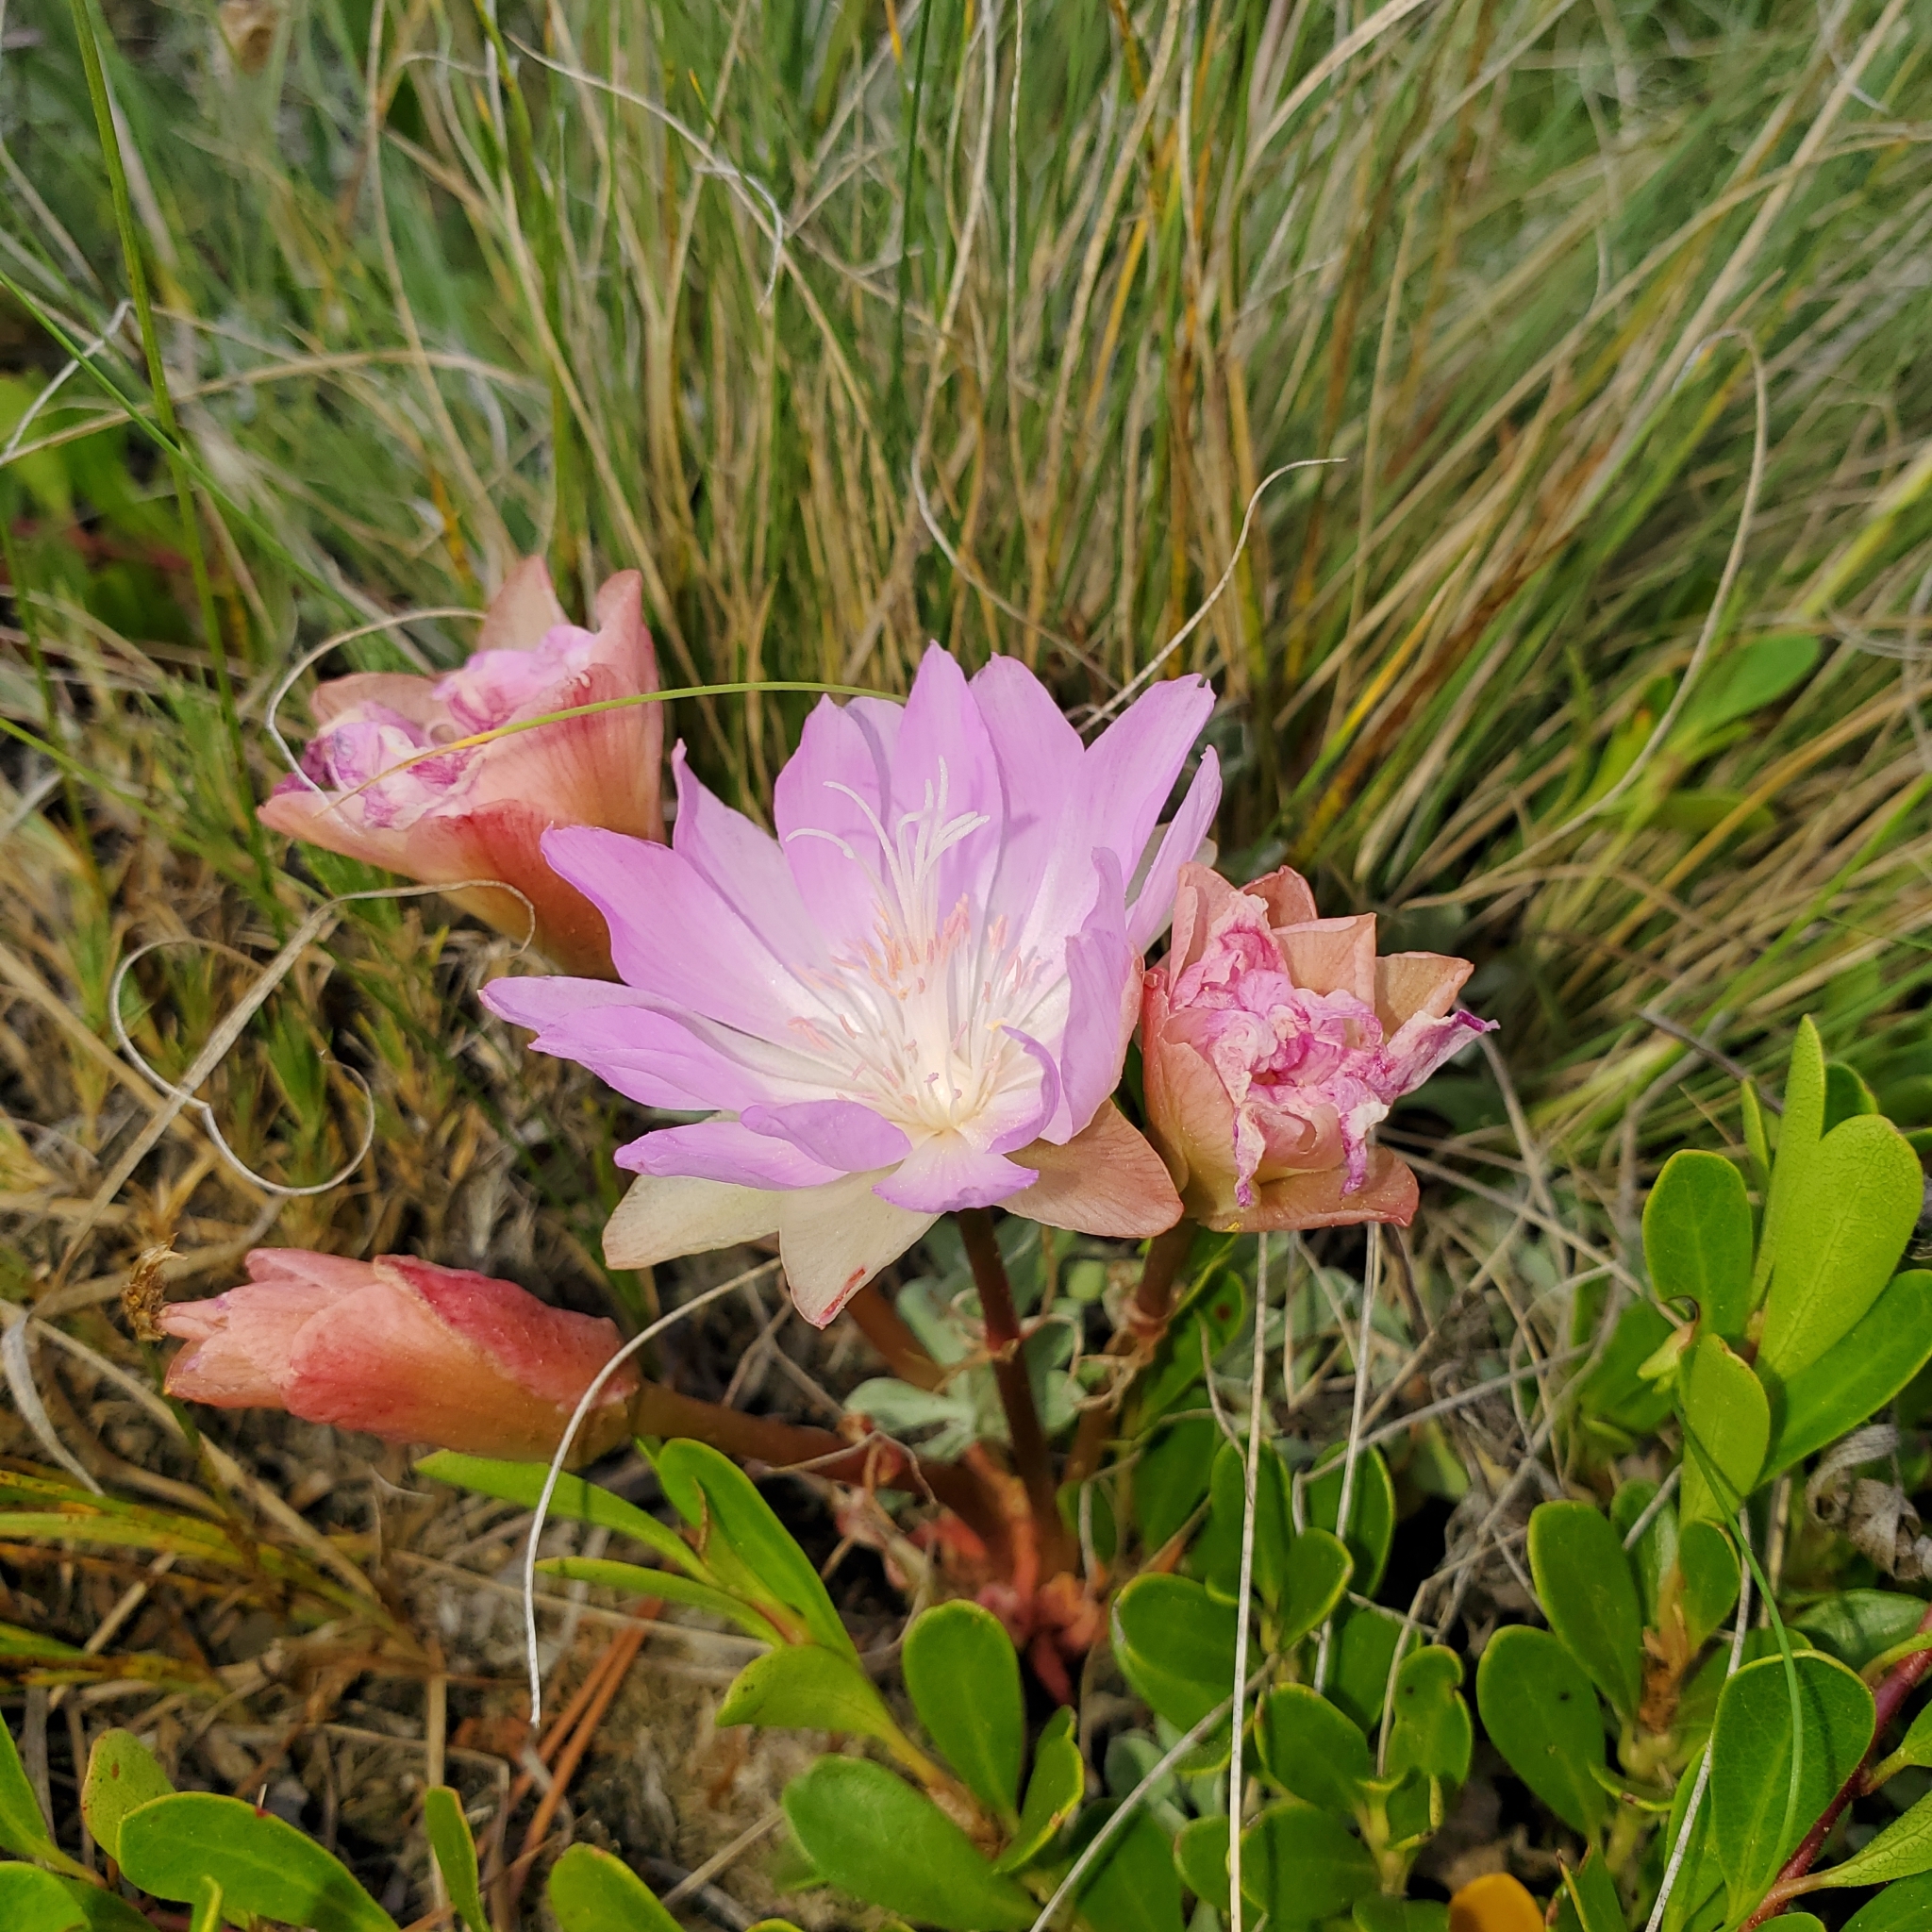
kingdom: Plantae
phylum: Tracheophyta
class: Magnoliopsida
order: Caryophyllales
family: Montiaceae
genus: Lewisia
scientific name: Lewisia rediviva
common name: Bitter-root
